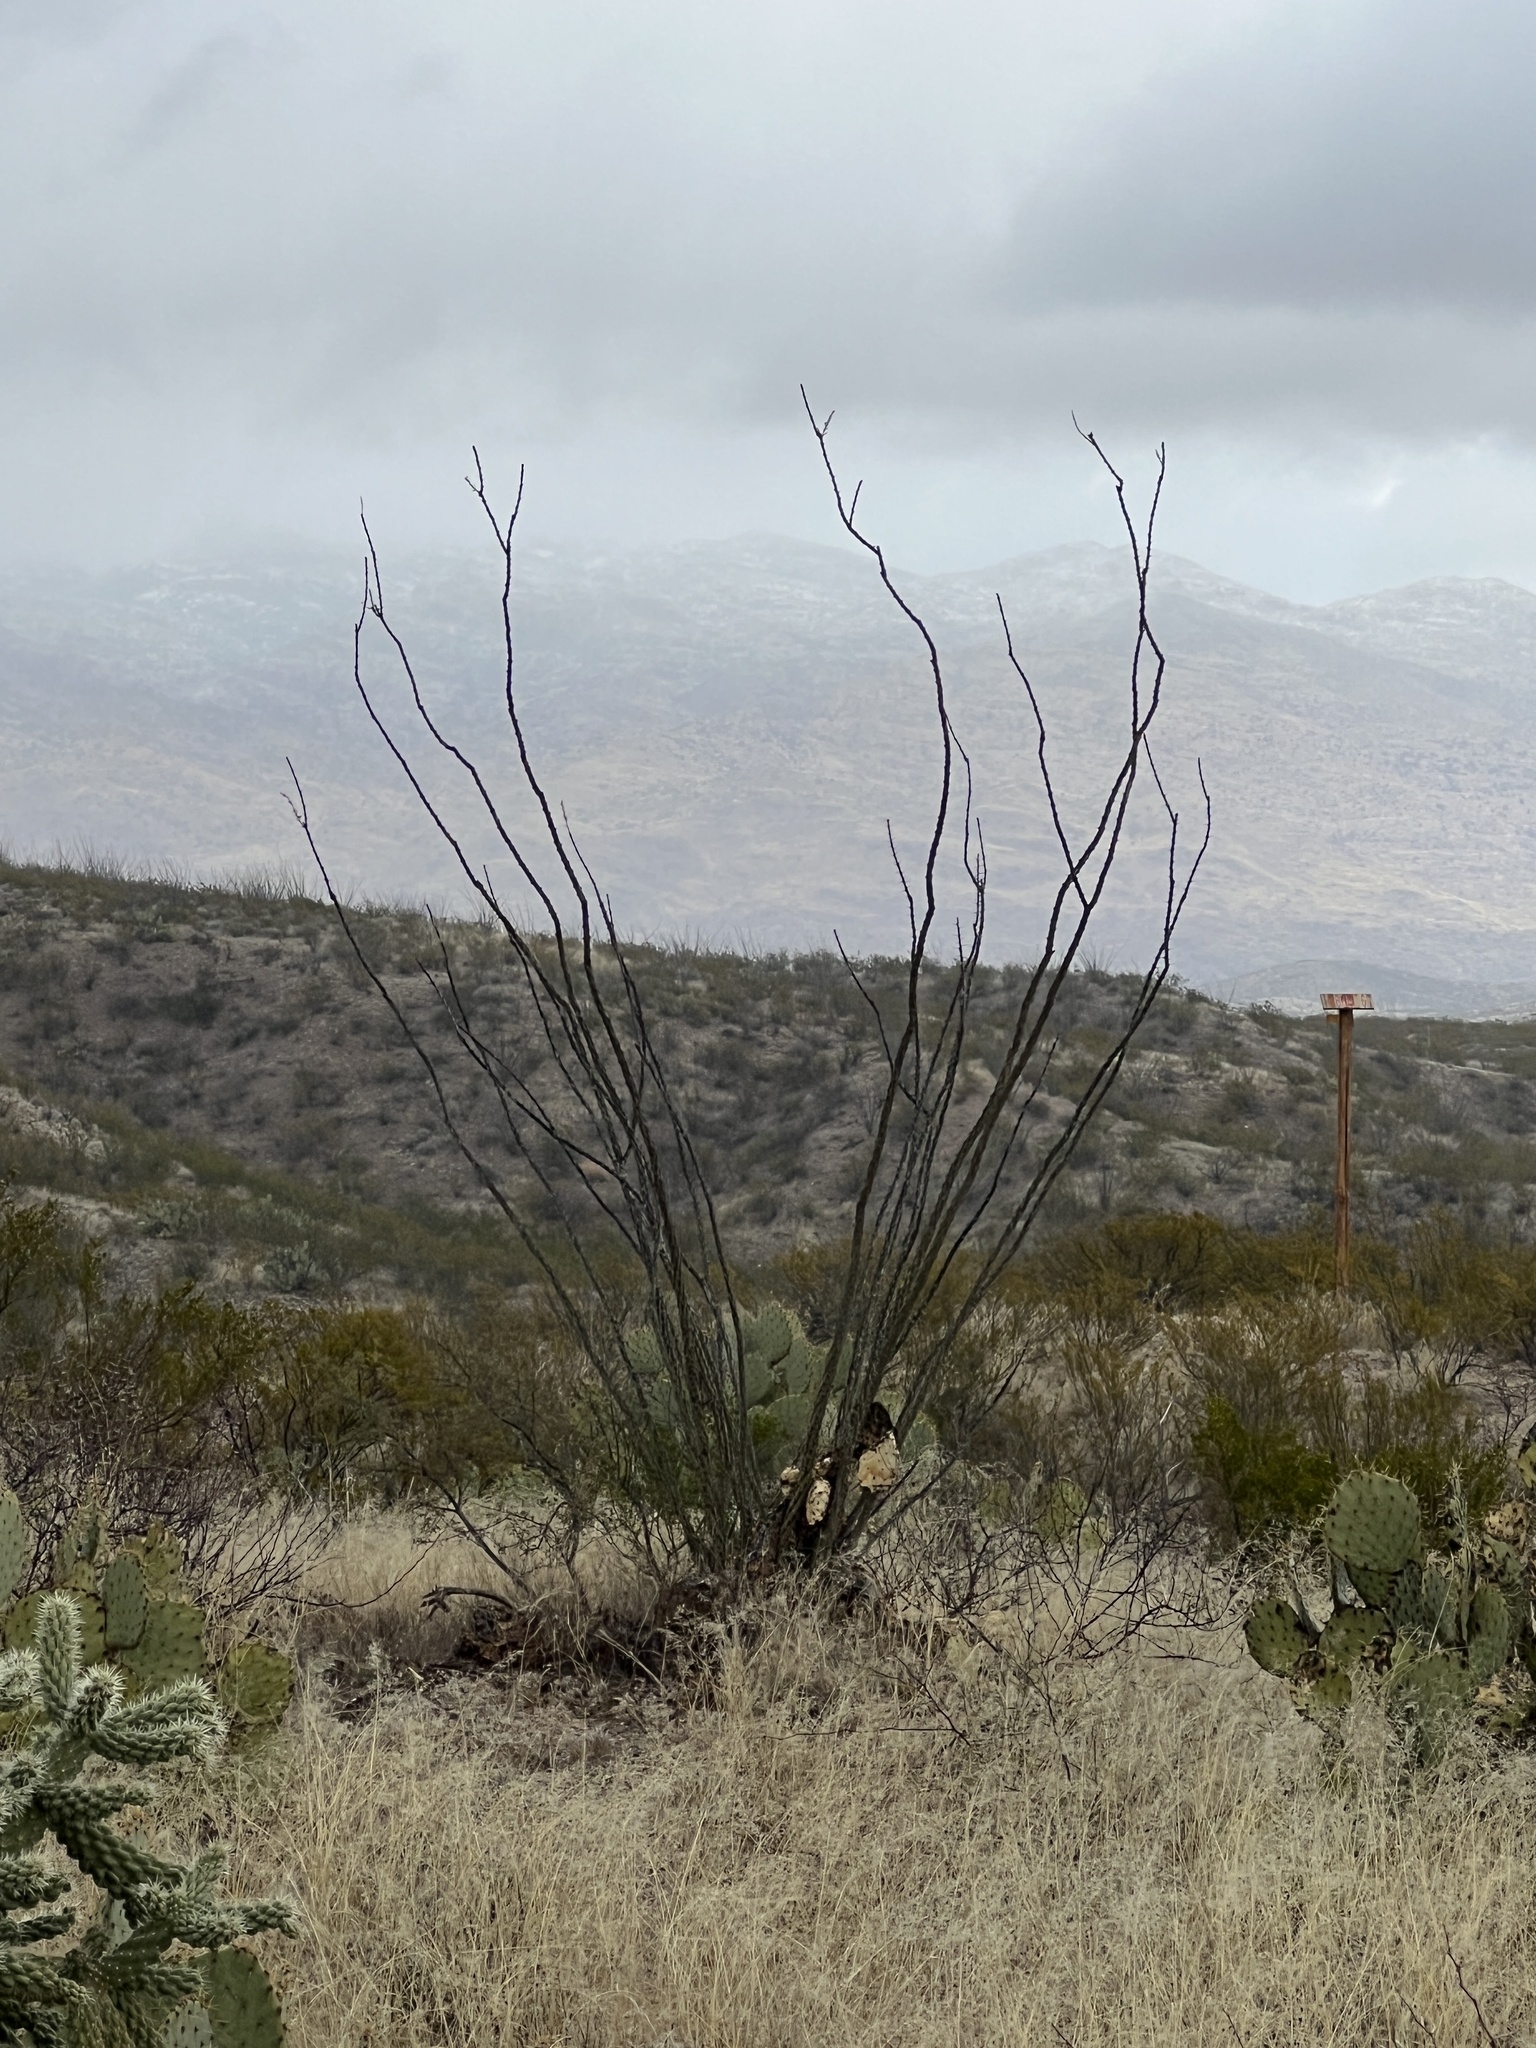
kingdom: Plantae
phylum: Tracheophyta
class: Magnoliopsida
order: Ericales
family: Fouquieriaceae
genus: Fouquieria
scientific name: Fouquieria splendens
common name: Vine-cactus
